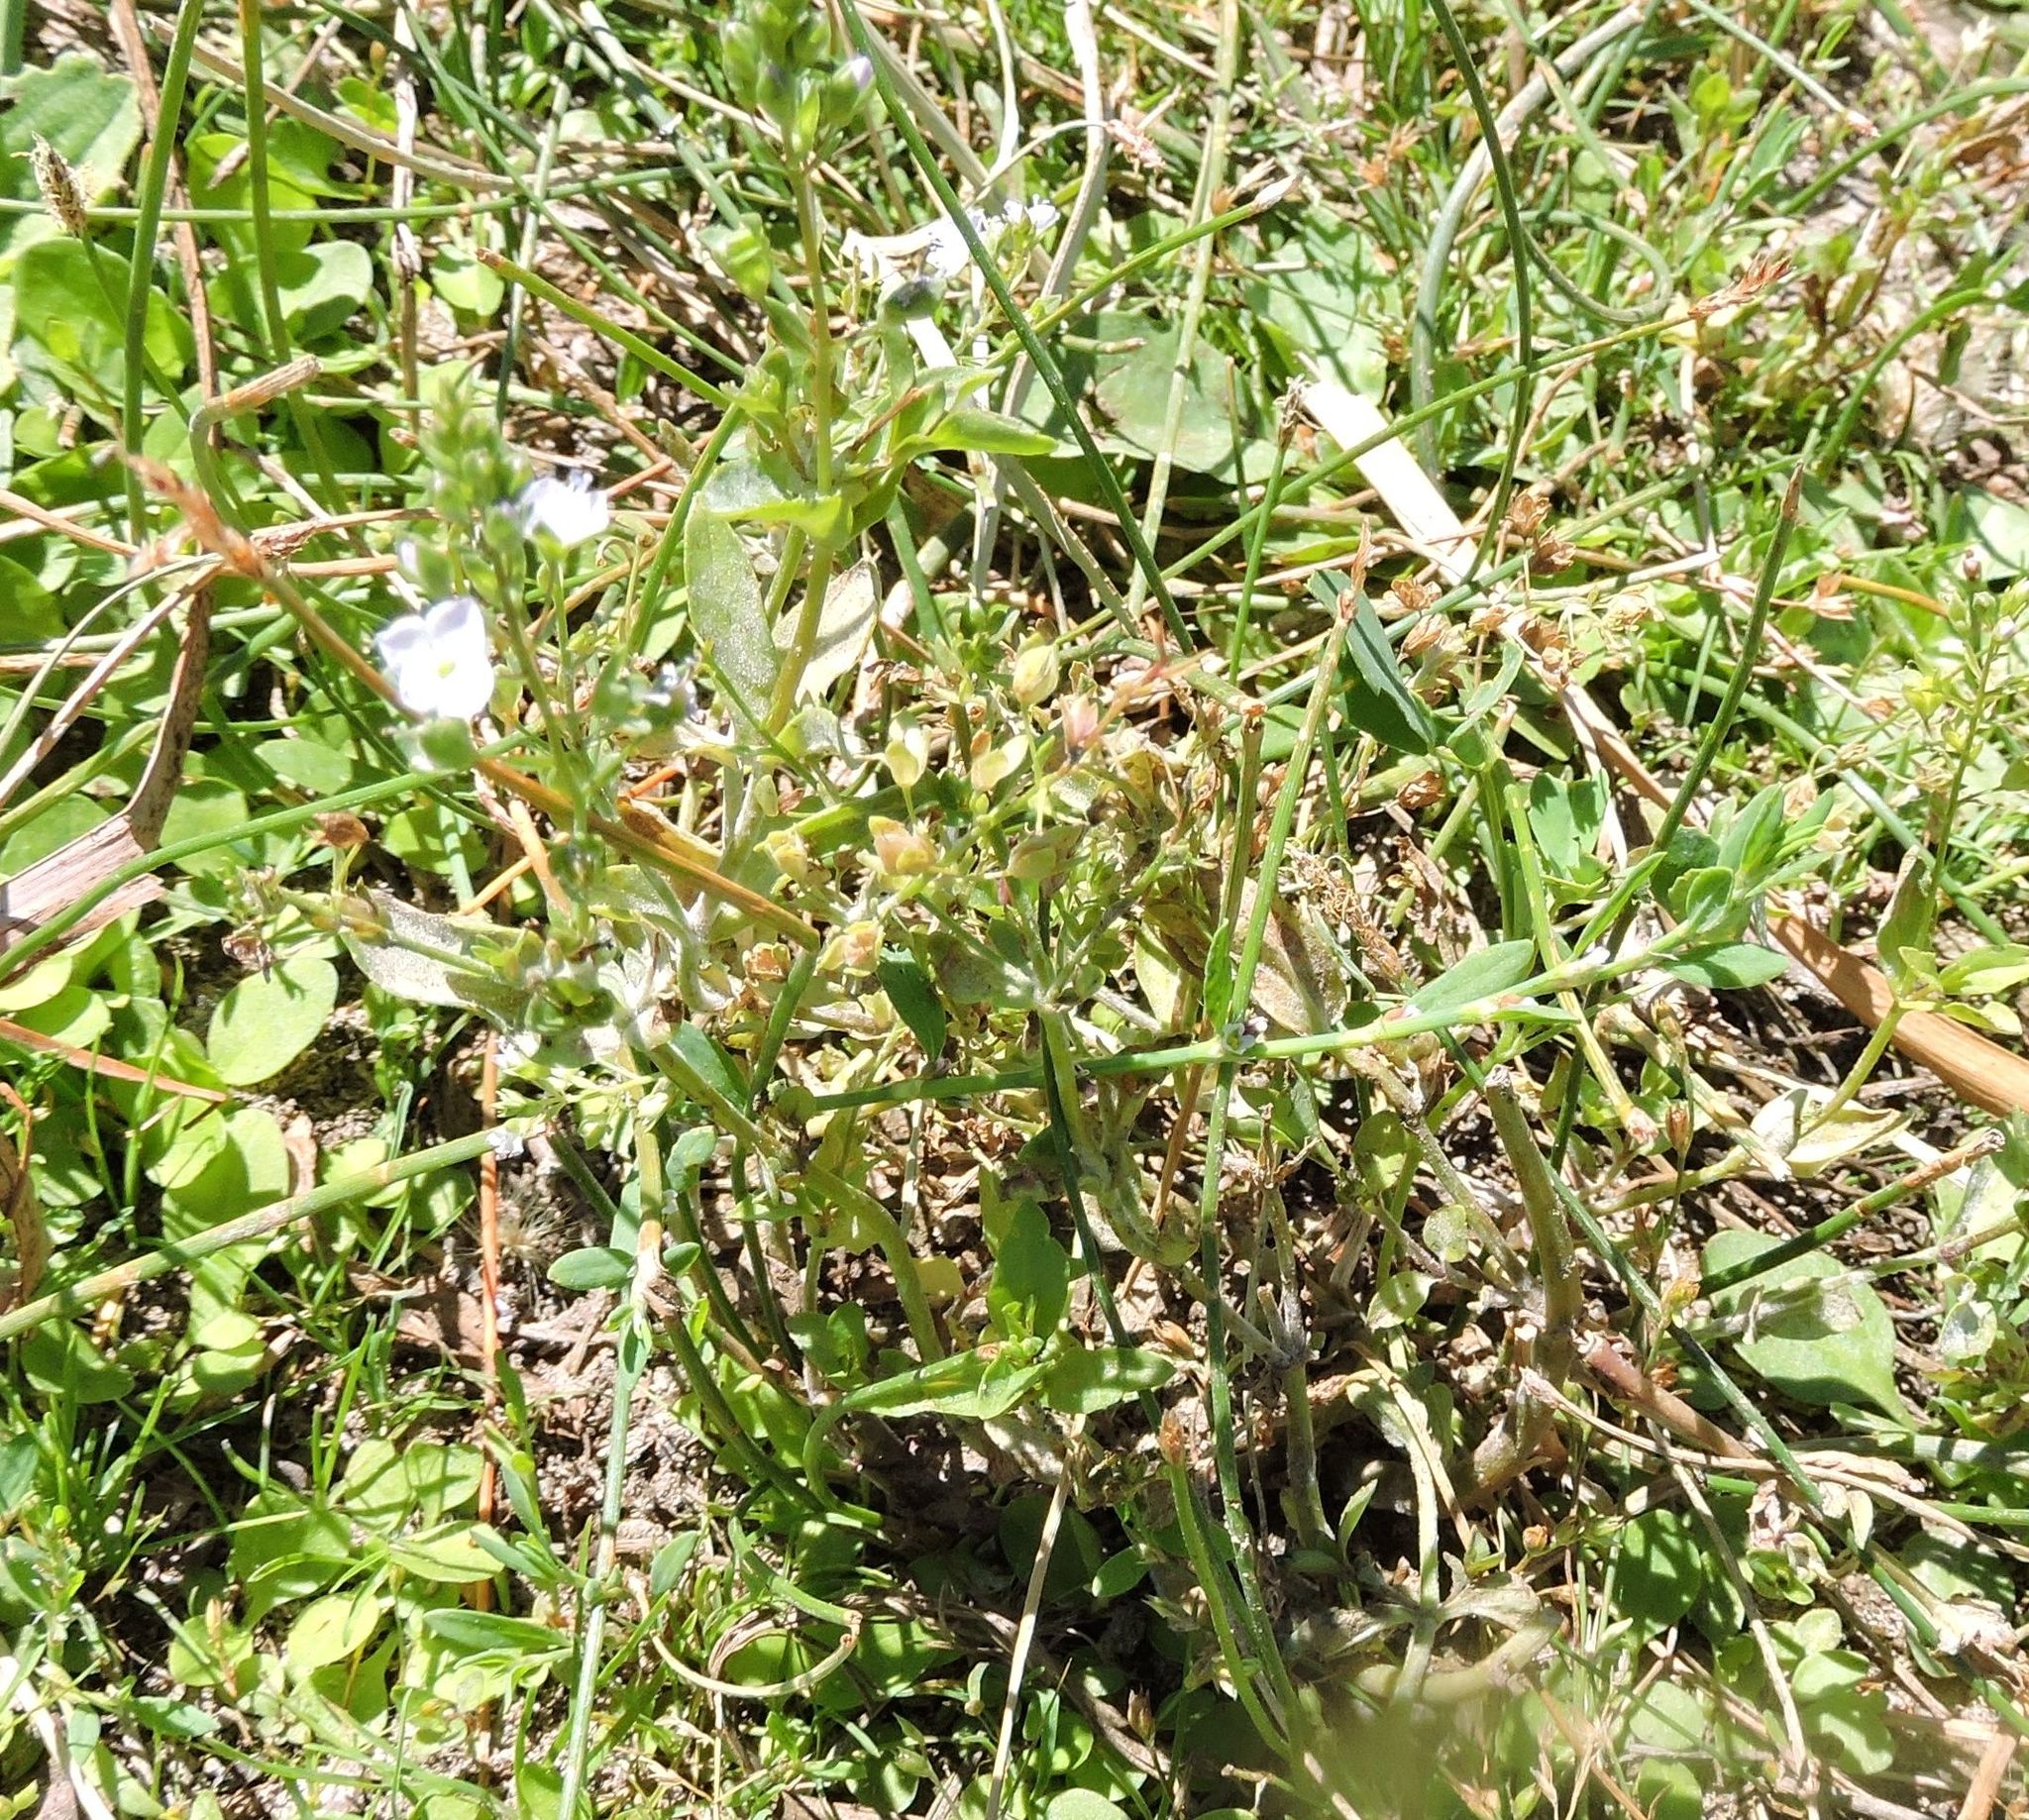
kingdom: Plantae
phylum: Tracheophyta
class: Magnoliopsida
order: Lamiales
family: Plantaginaceae
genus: Veronica
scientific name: Veronica anagallis-aquatica
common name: Water speedwell
